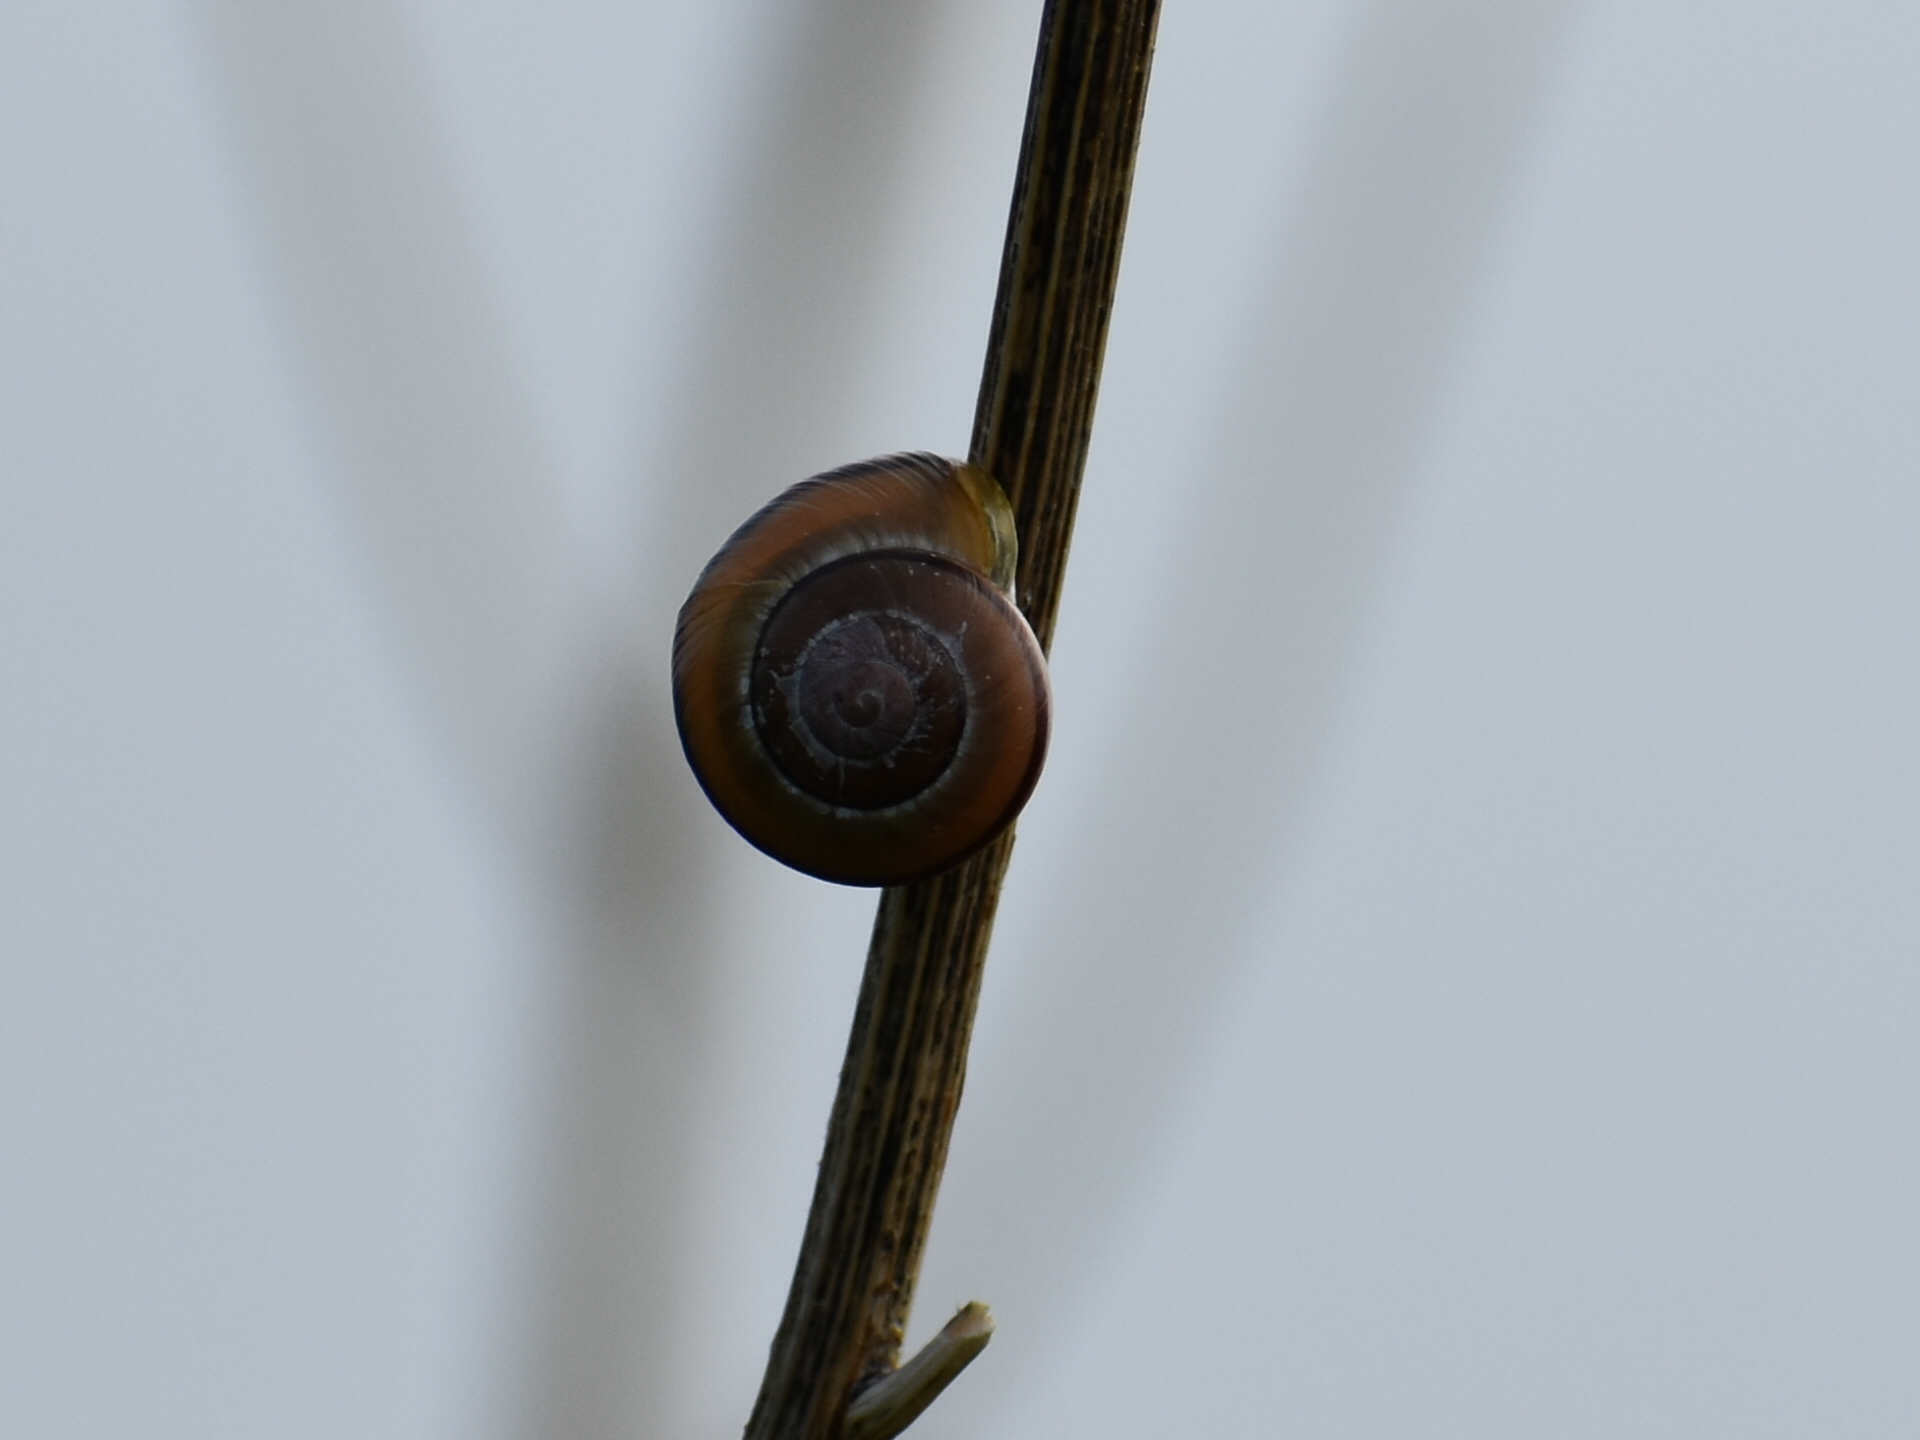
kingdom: Animalia
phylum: Mollusca
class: Gastropoda
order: Stylommatophora
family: Helicidae
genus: Cepaea
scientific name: Cepaea nemoralis
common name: Grovesnail
